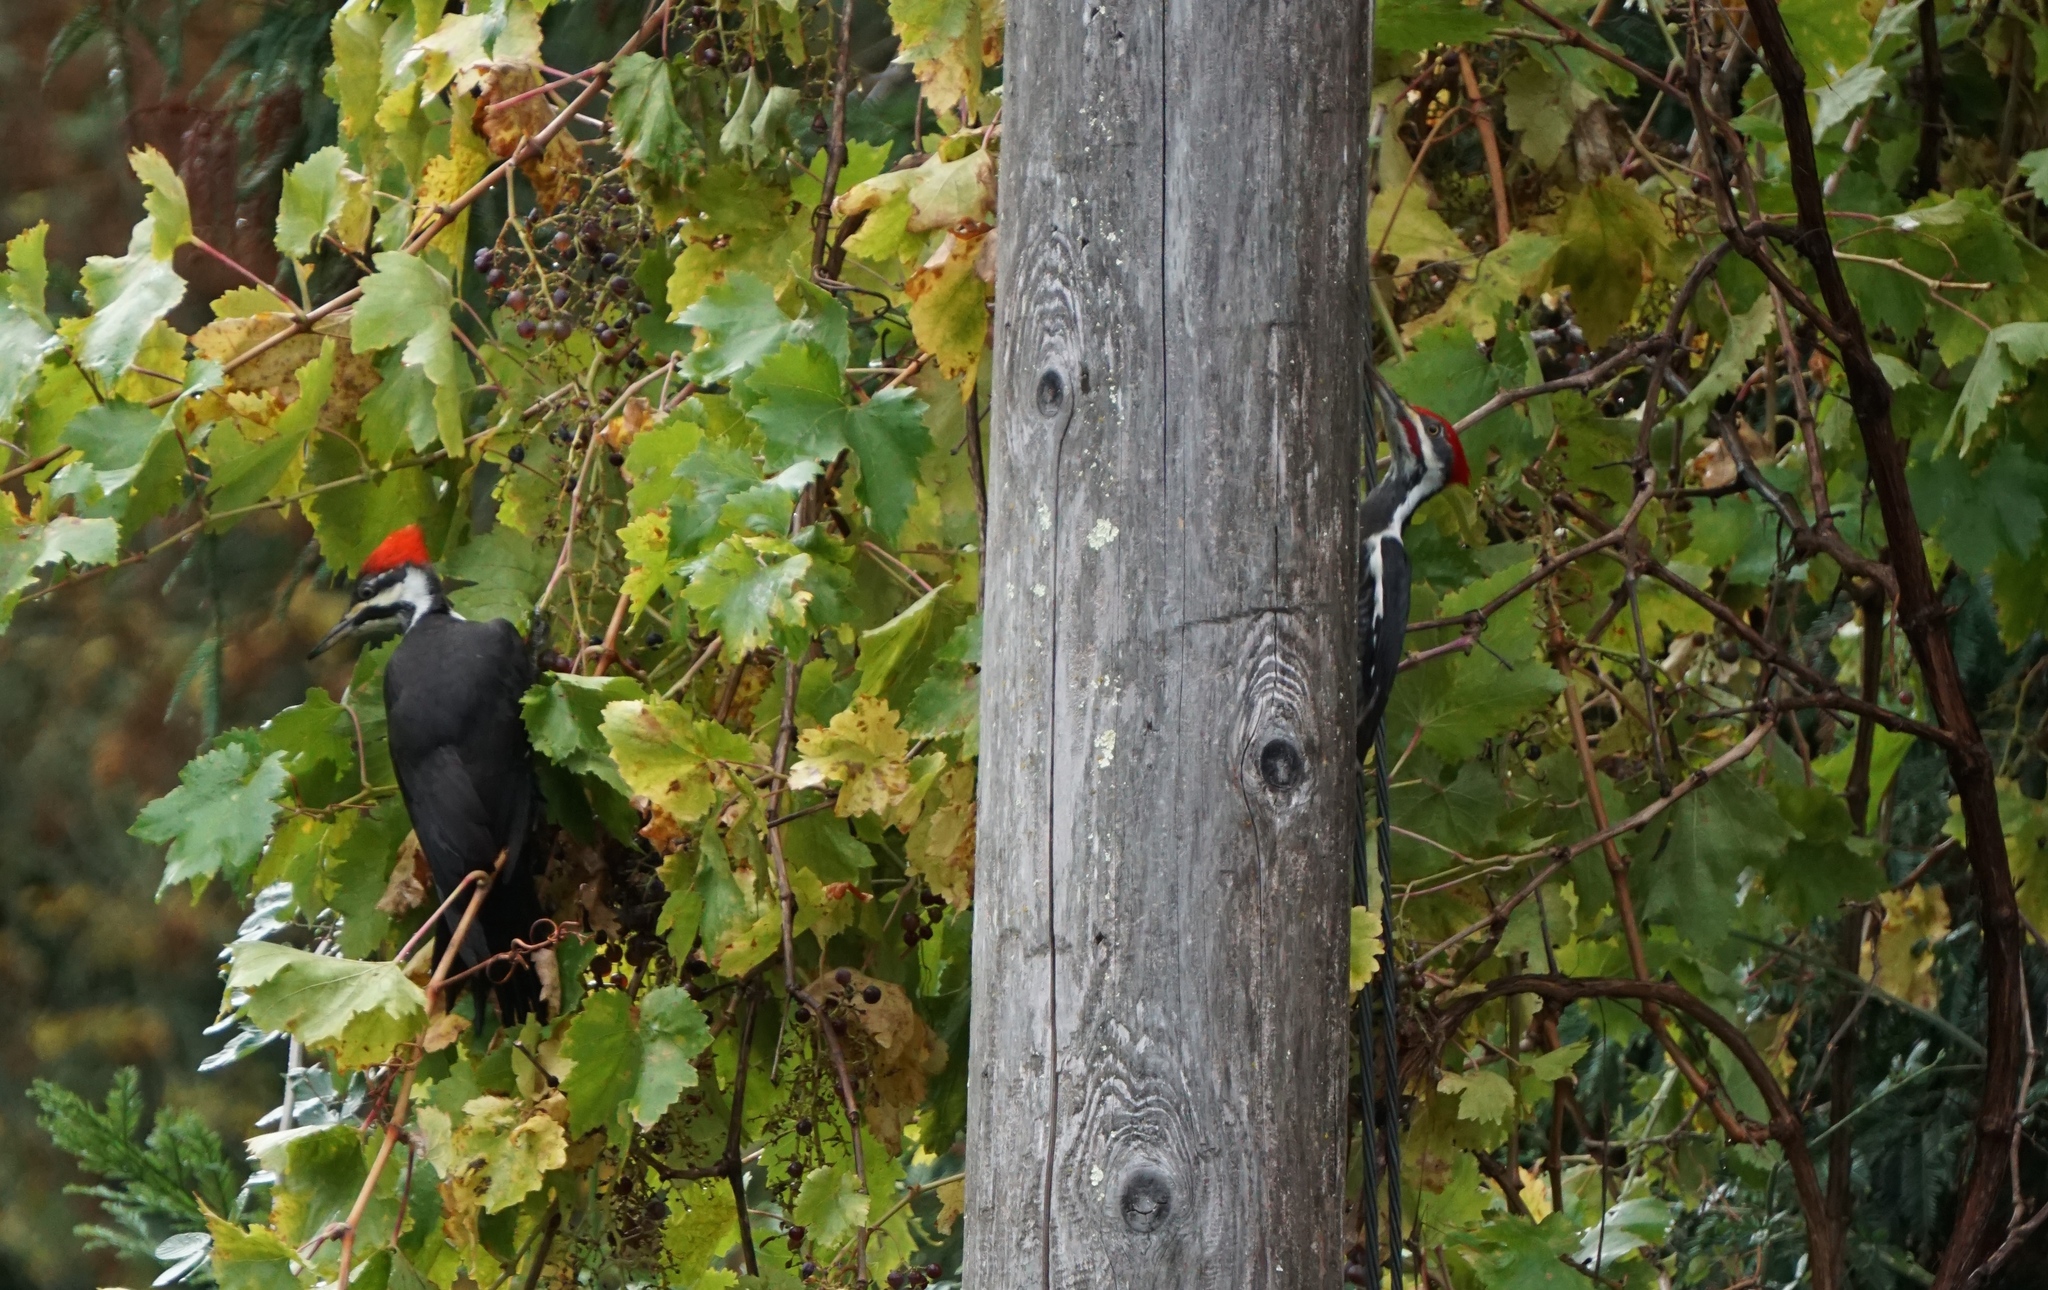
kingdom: Animalia
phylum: Chordata
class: Aves
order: Piciformes
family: Picidae
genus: Dryocopus
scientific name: Dryocopus pileatus
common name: Pileated woodpecker
